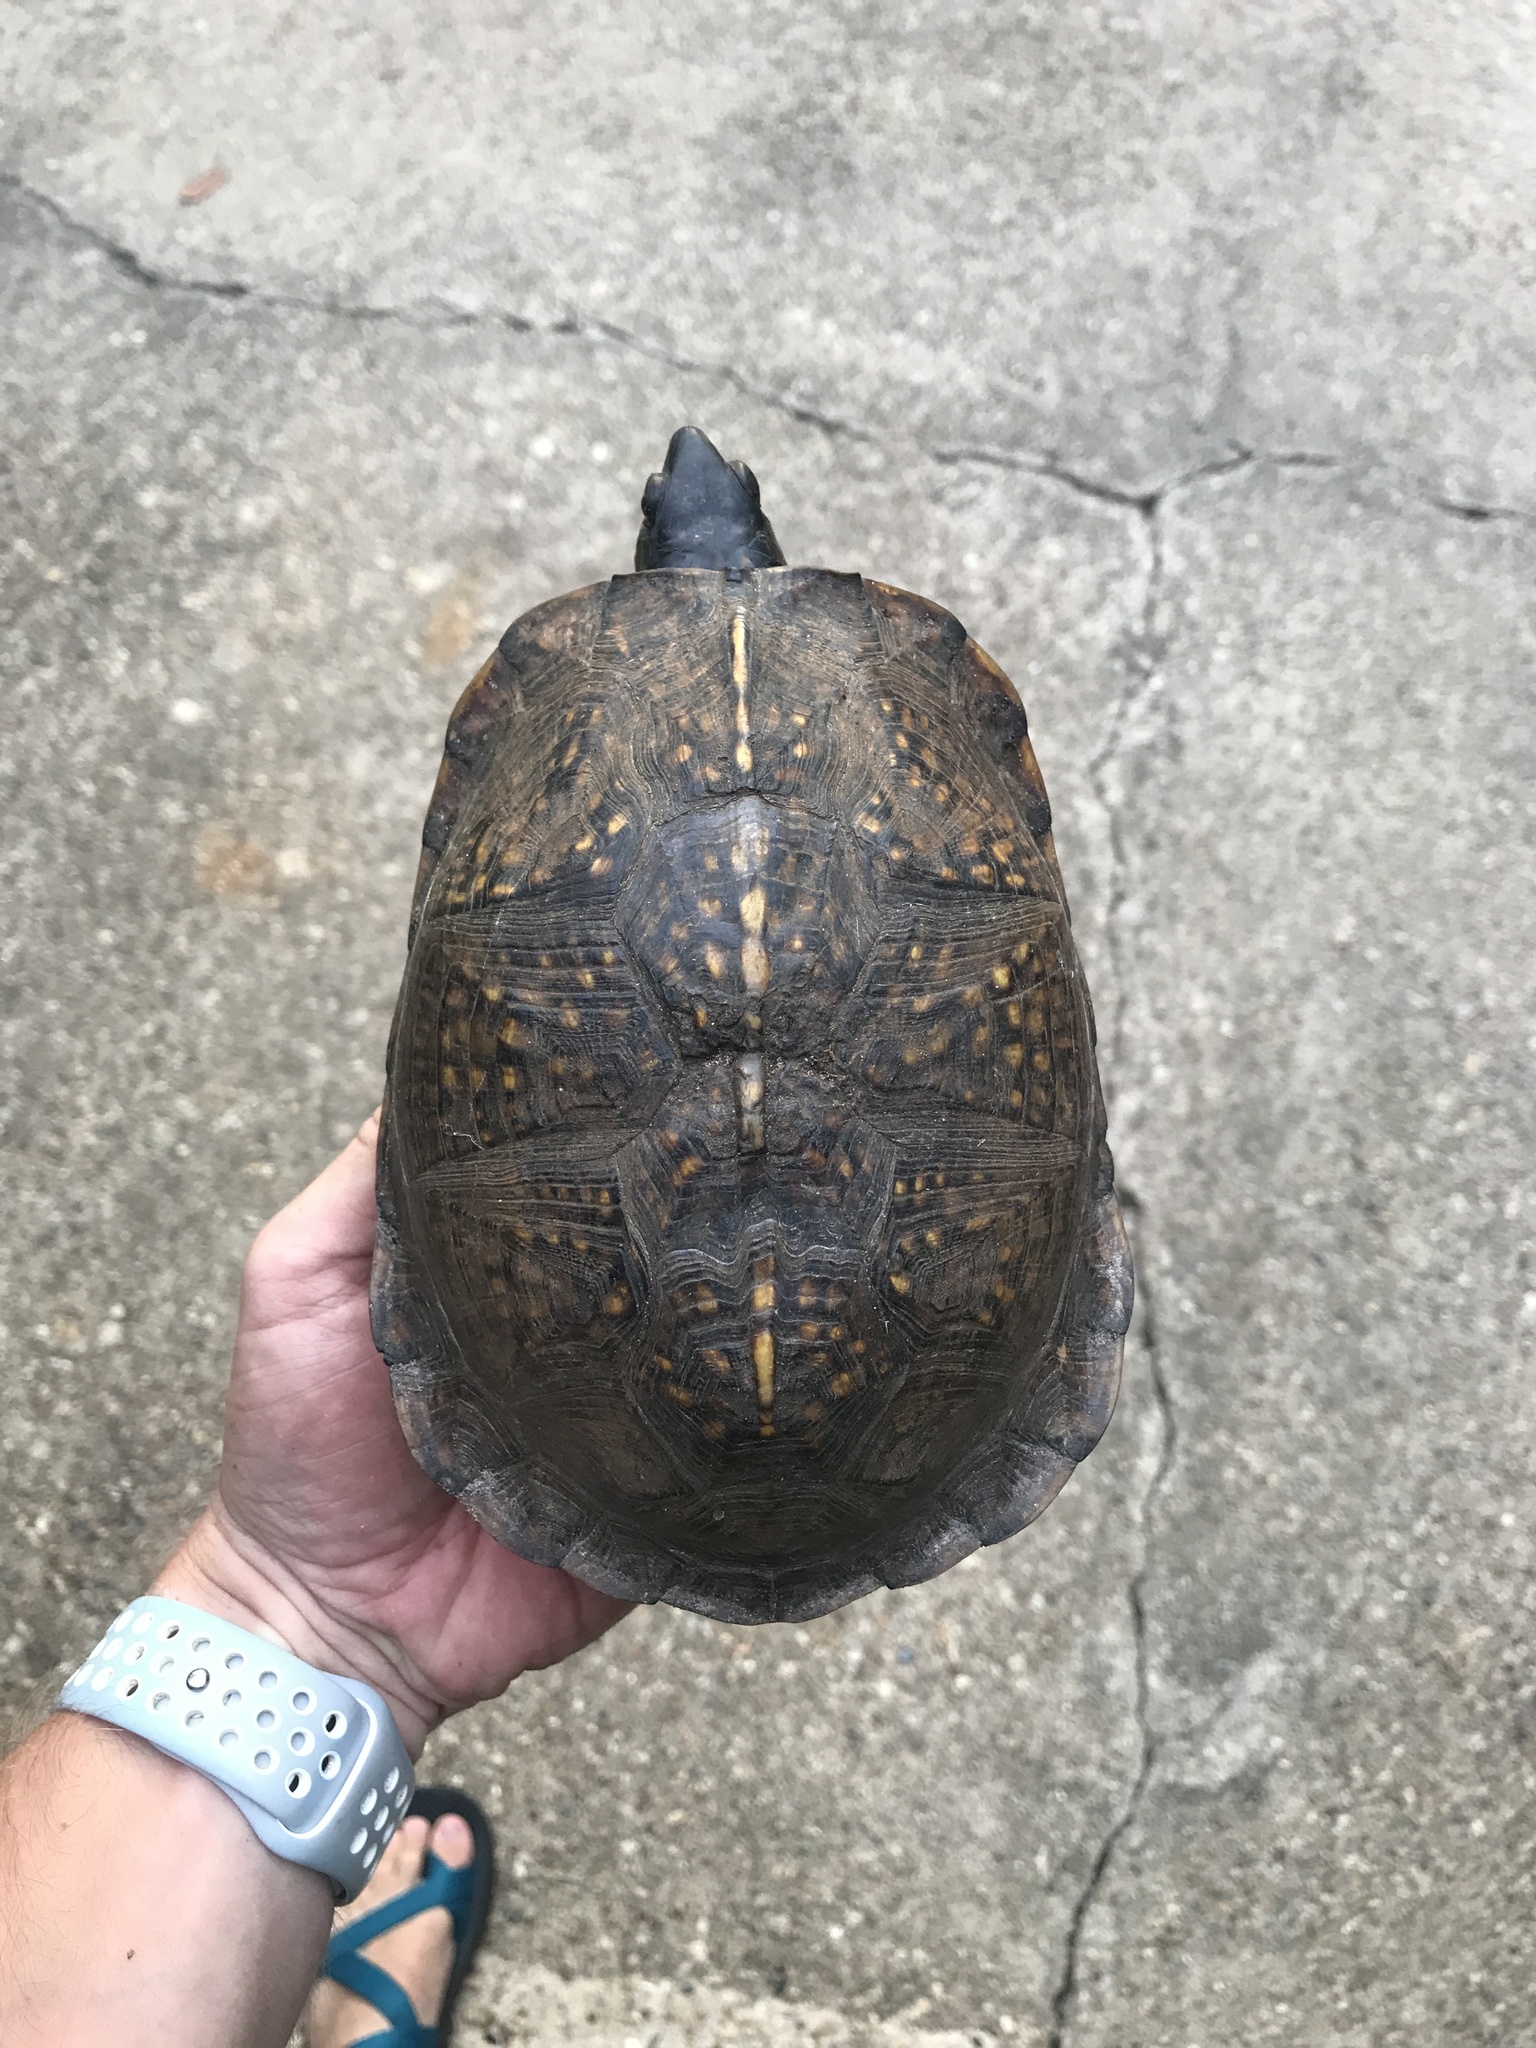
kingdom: Animalia
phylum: Chordata
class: Testudines
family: Emydidae
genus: Terrapene
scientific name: Terrapene carolina
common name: Common box turtle
